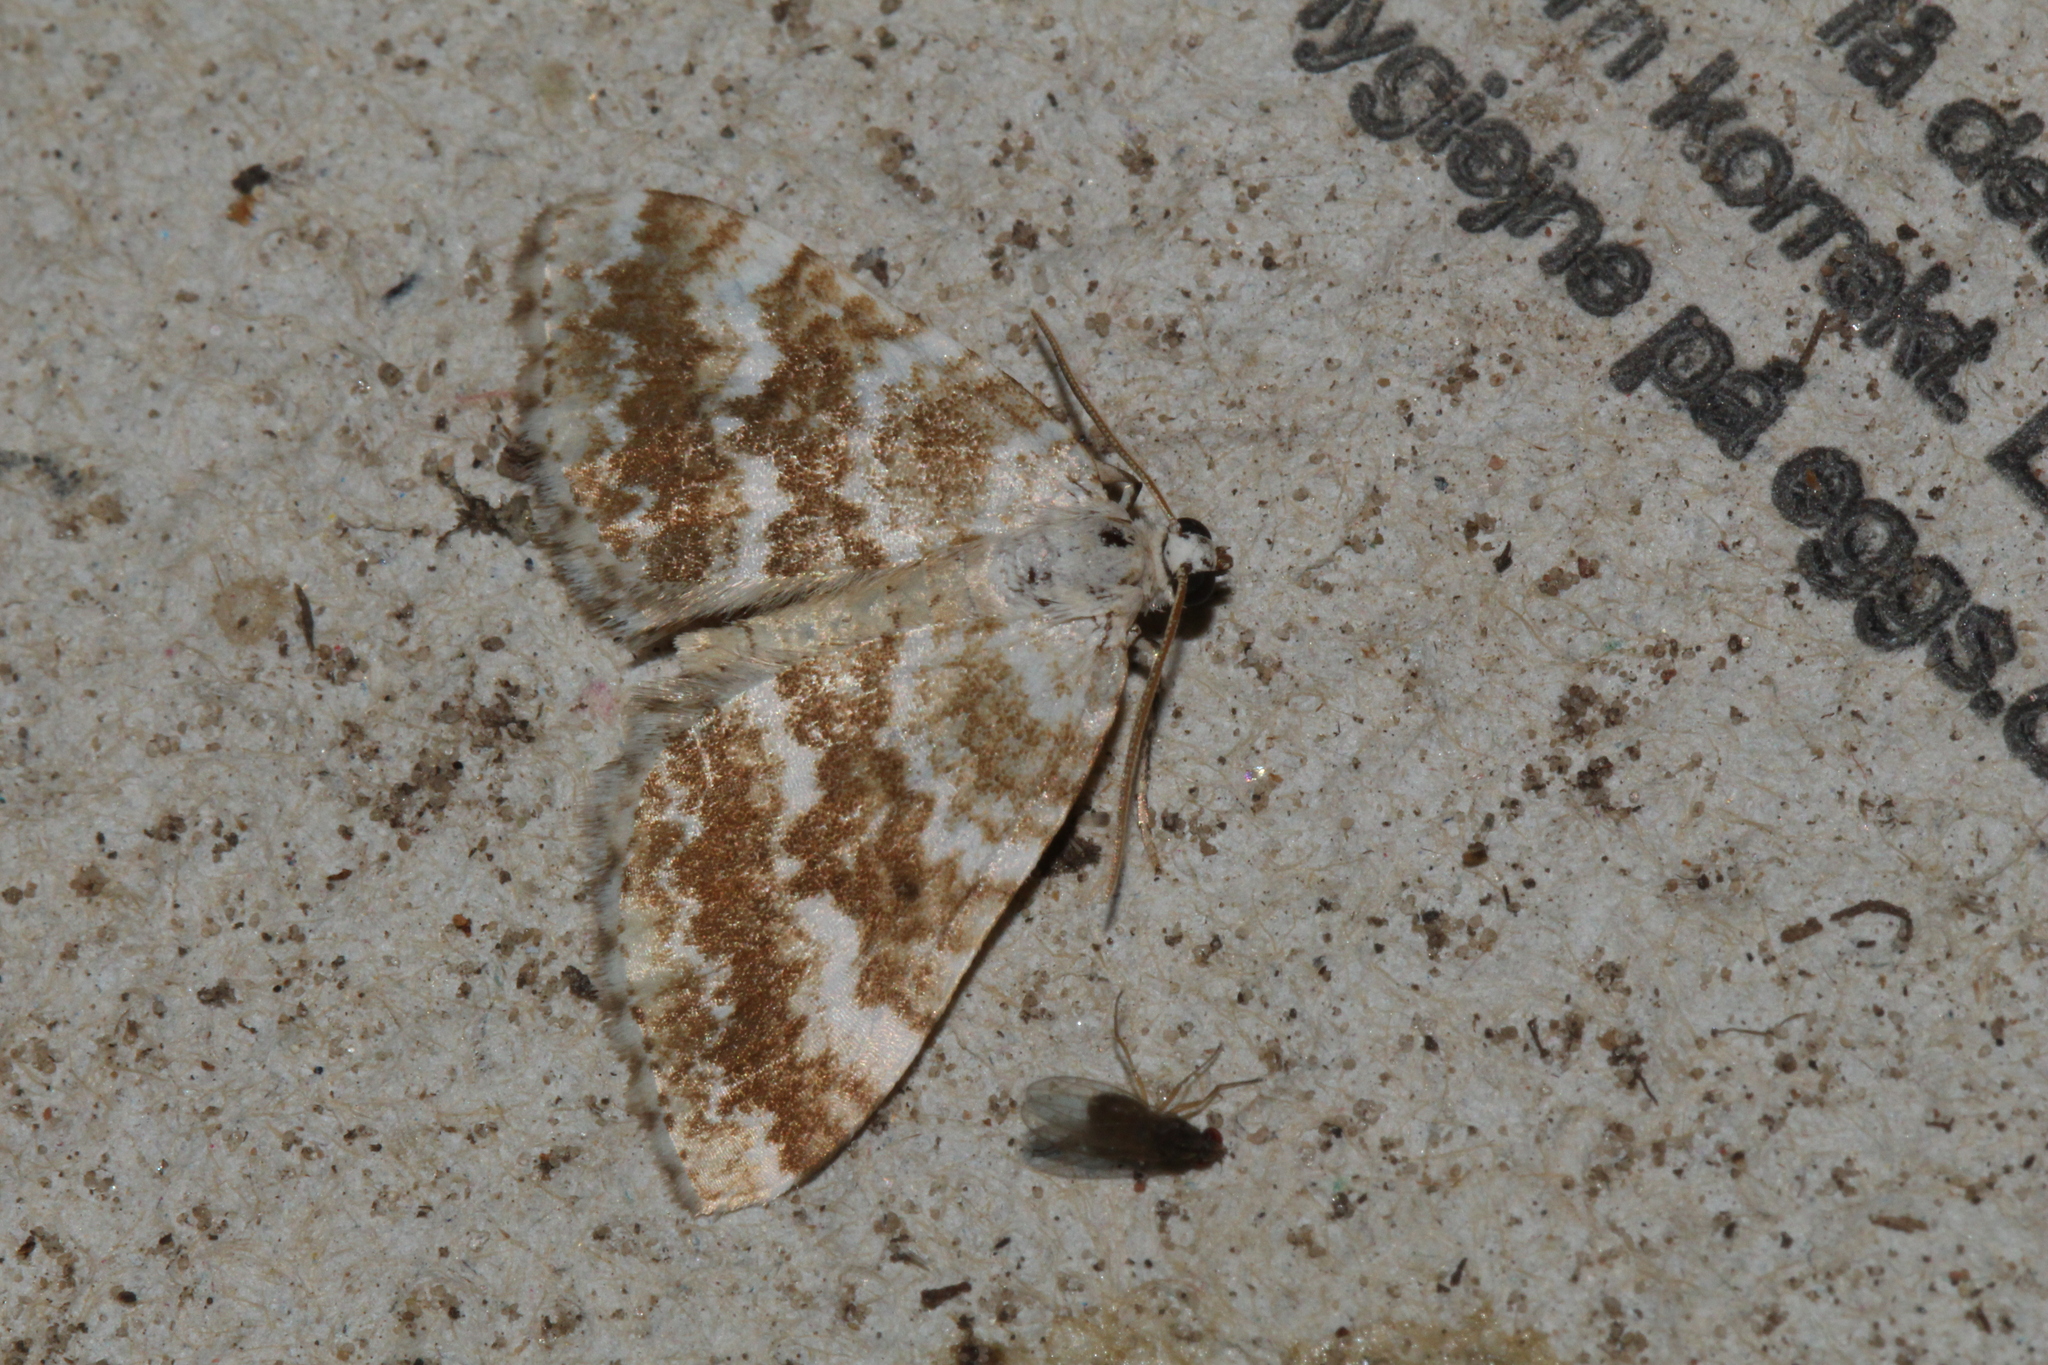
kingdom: Animalia
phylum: Arthropoda
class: Insecta
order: Lepidoptera
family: Geometridae
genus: Perizoma
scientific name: Perizoma flavofasciata
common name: Sandy carpet
